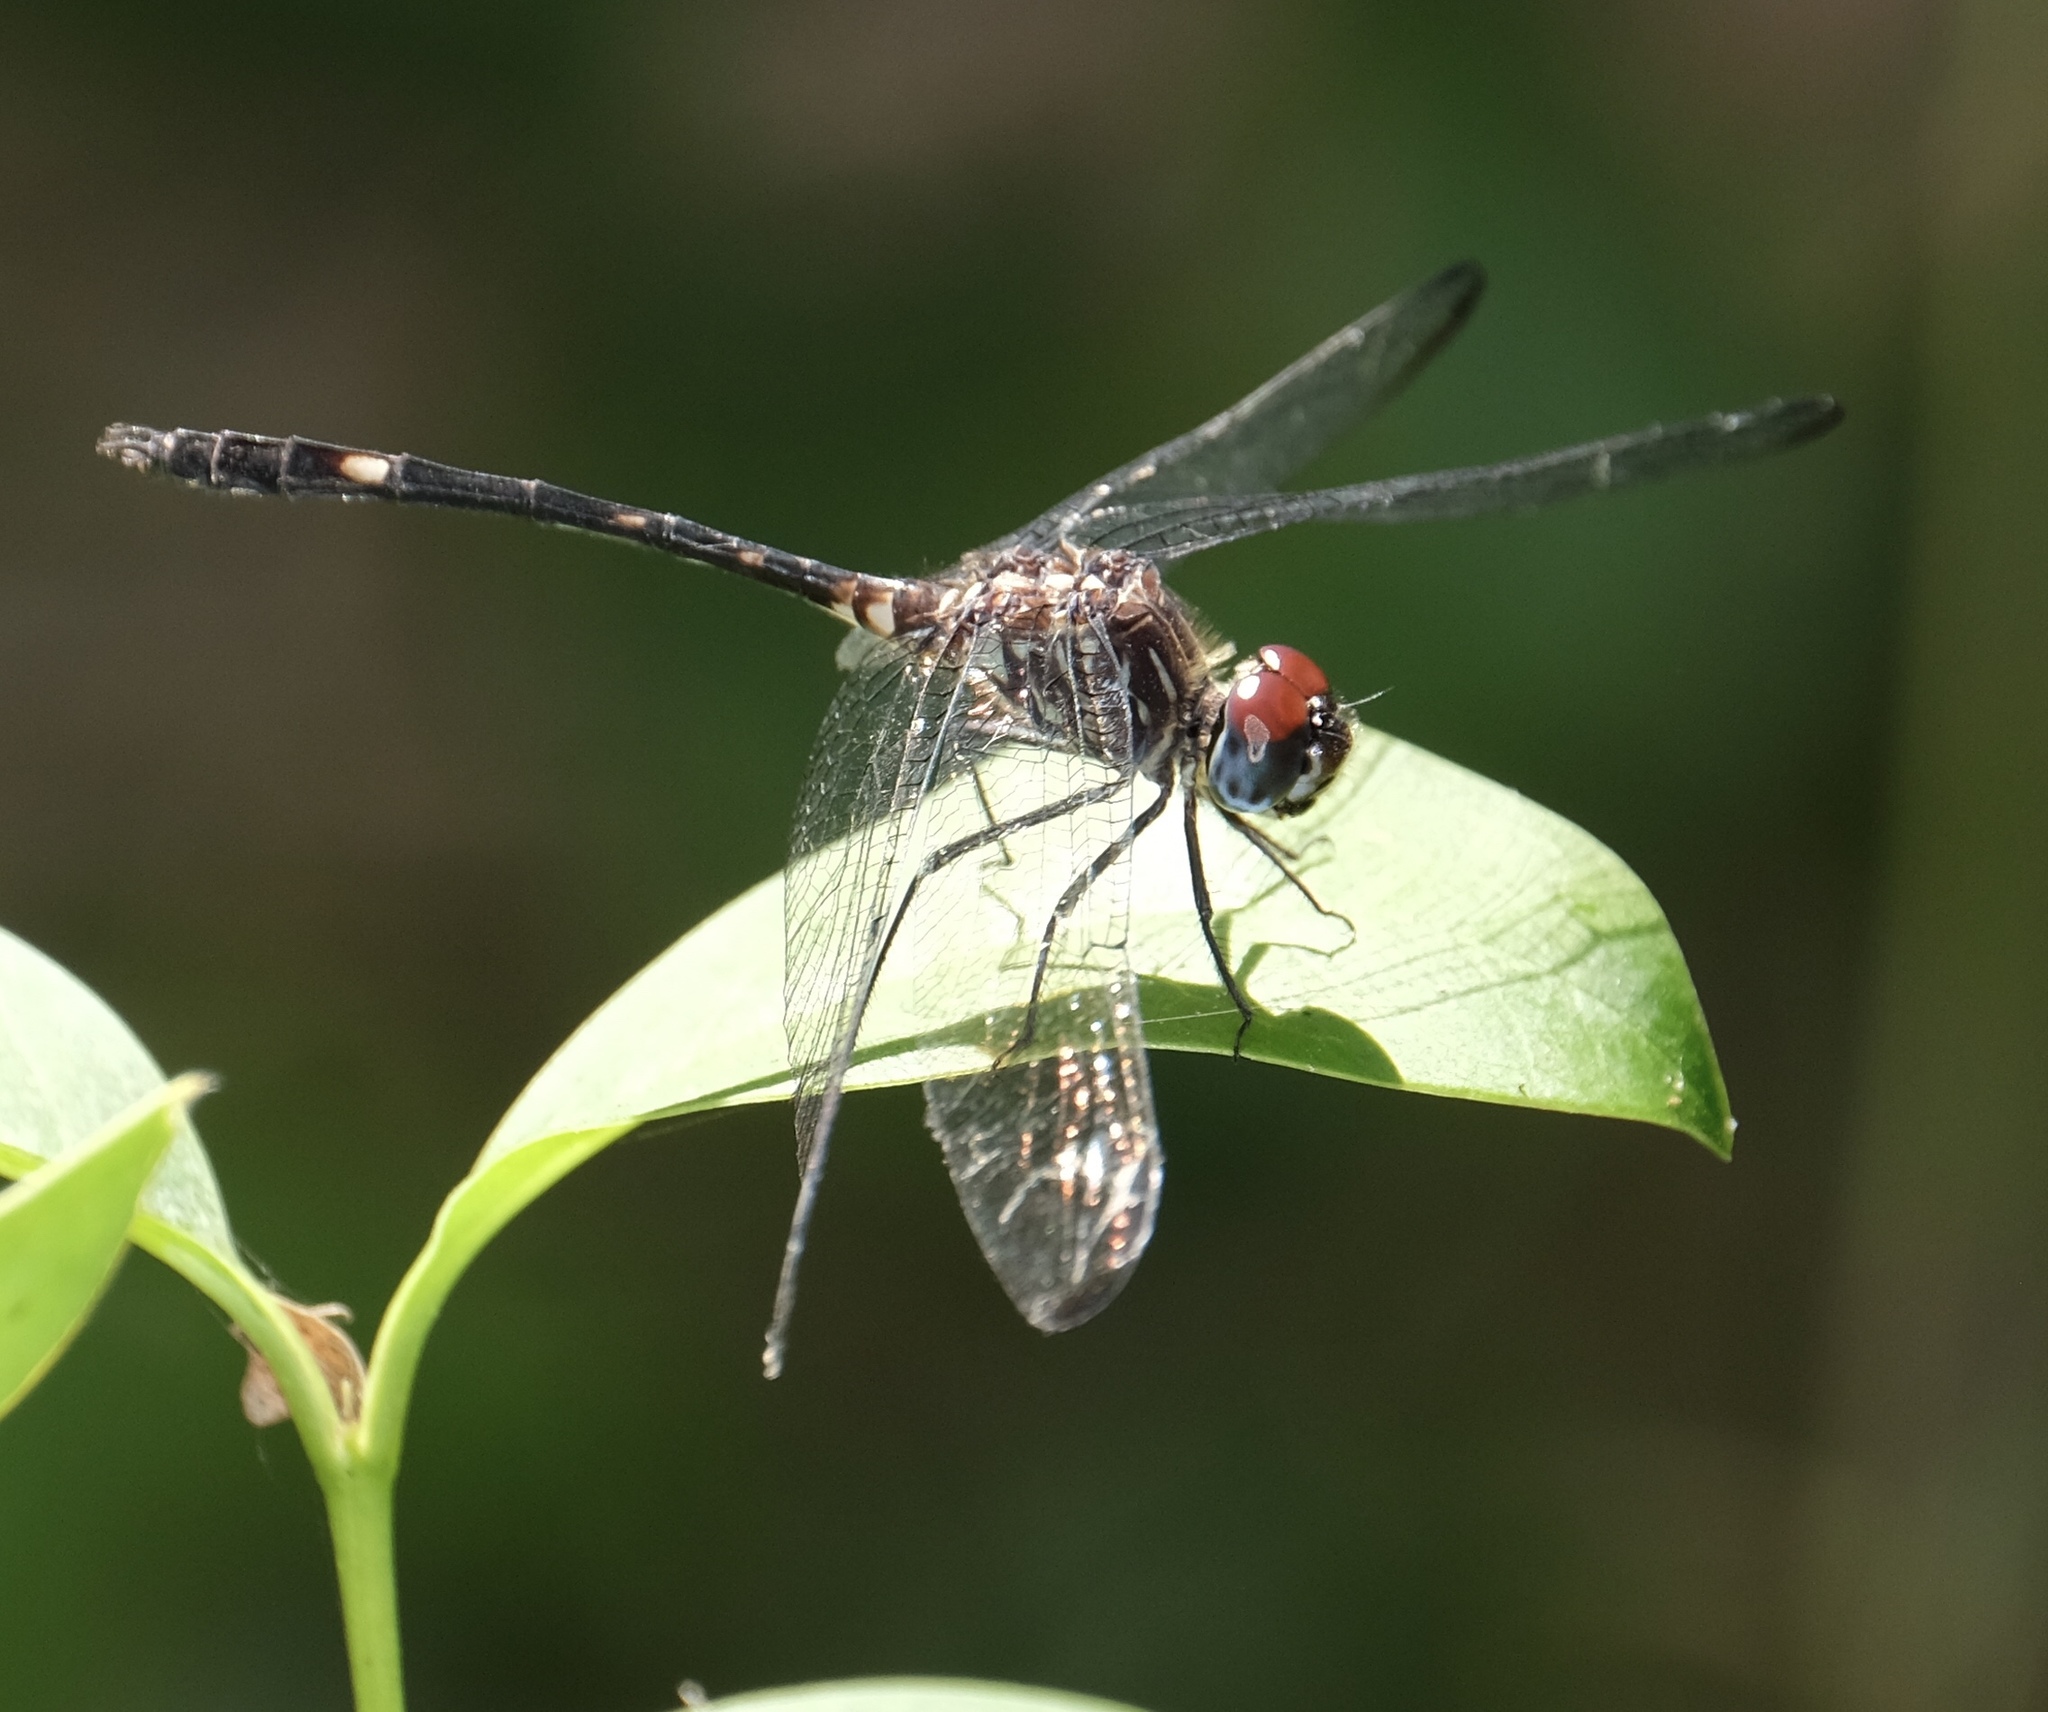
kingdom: Animalia
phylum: Arthropoda
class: Insecta
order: Odonata
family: Libellulidae
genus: Dythemis
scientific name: Dythemis velox
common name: Swift setwing
